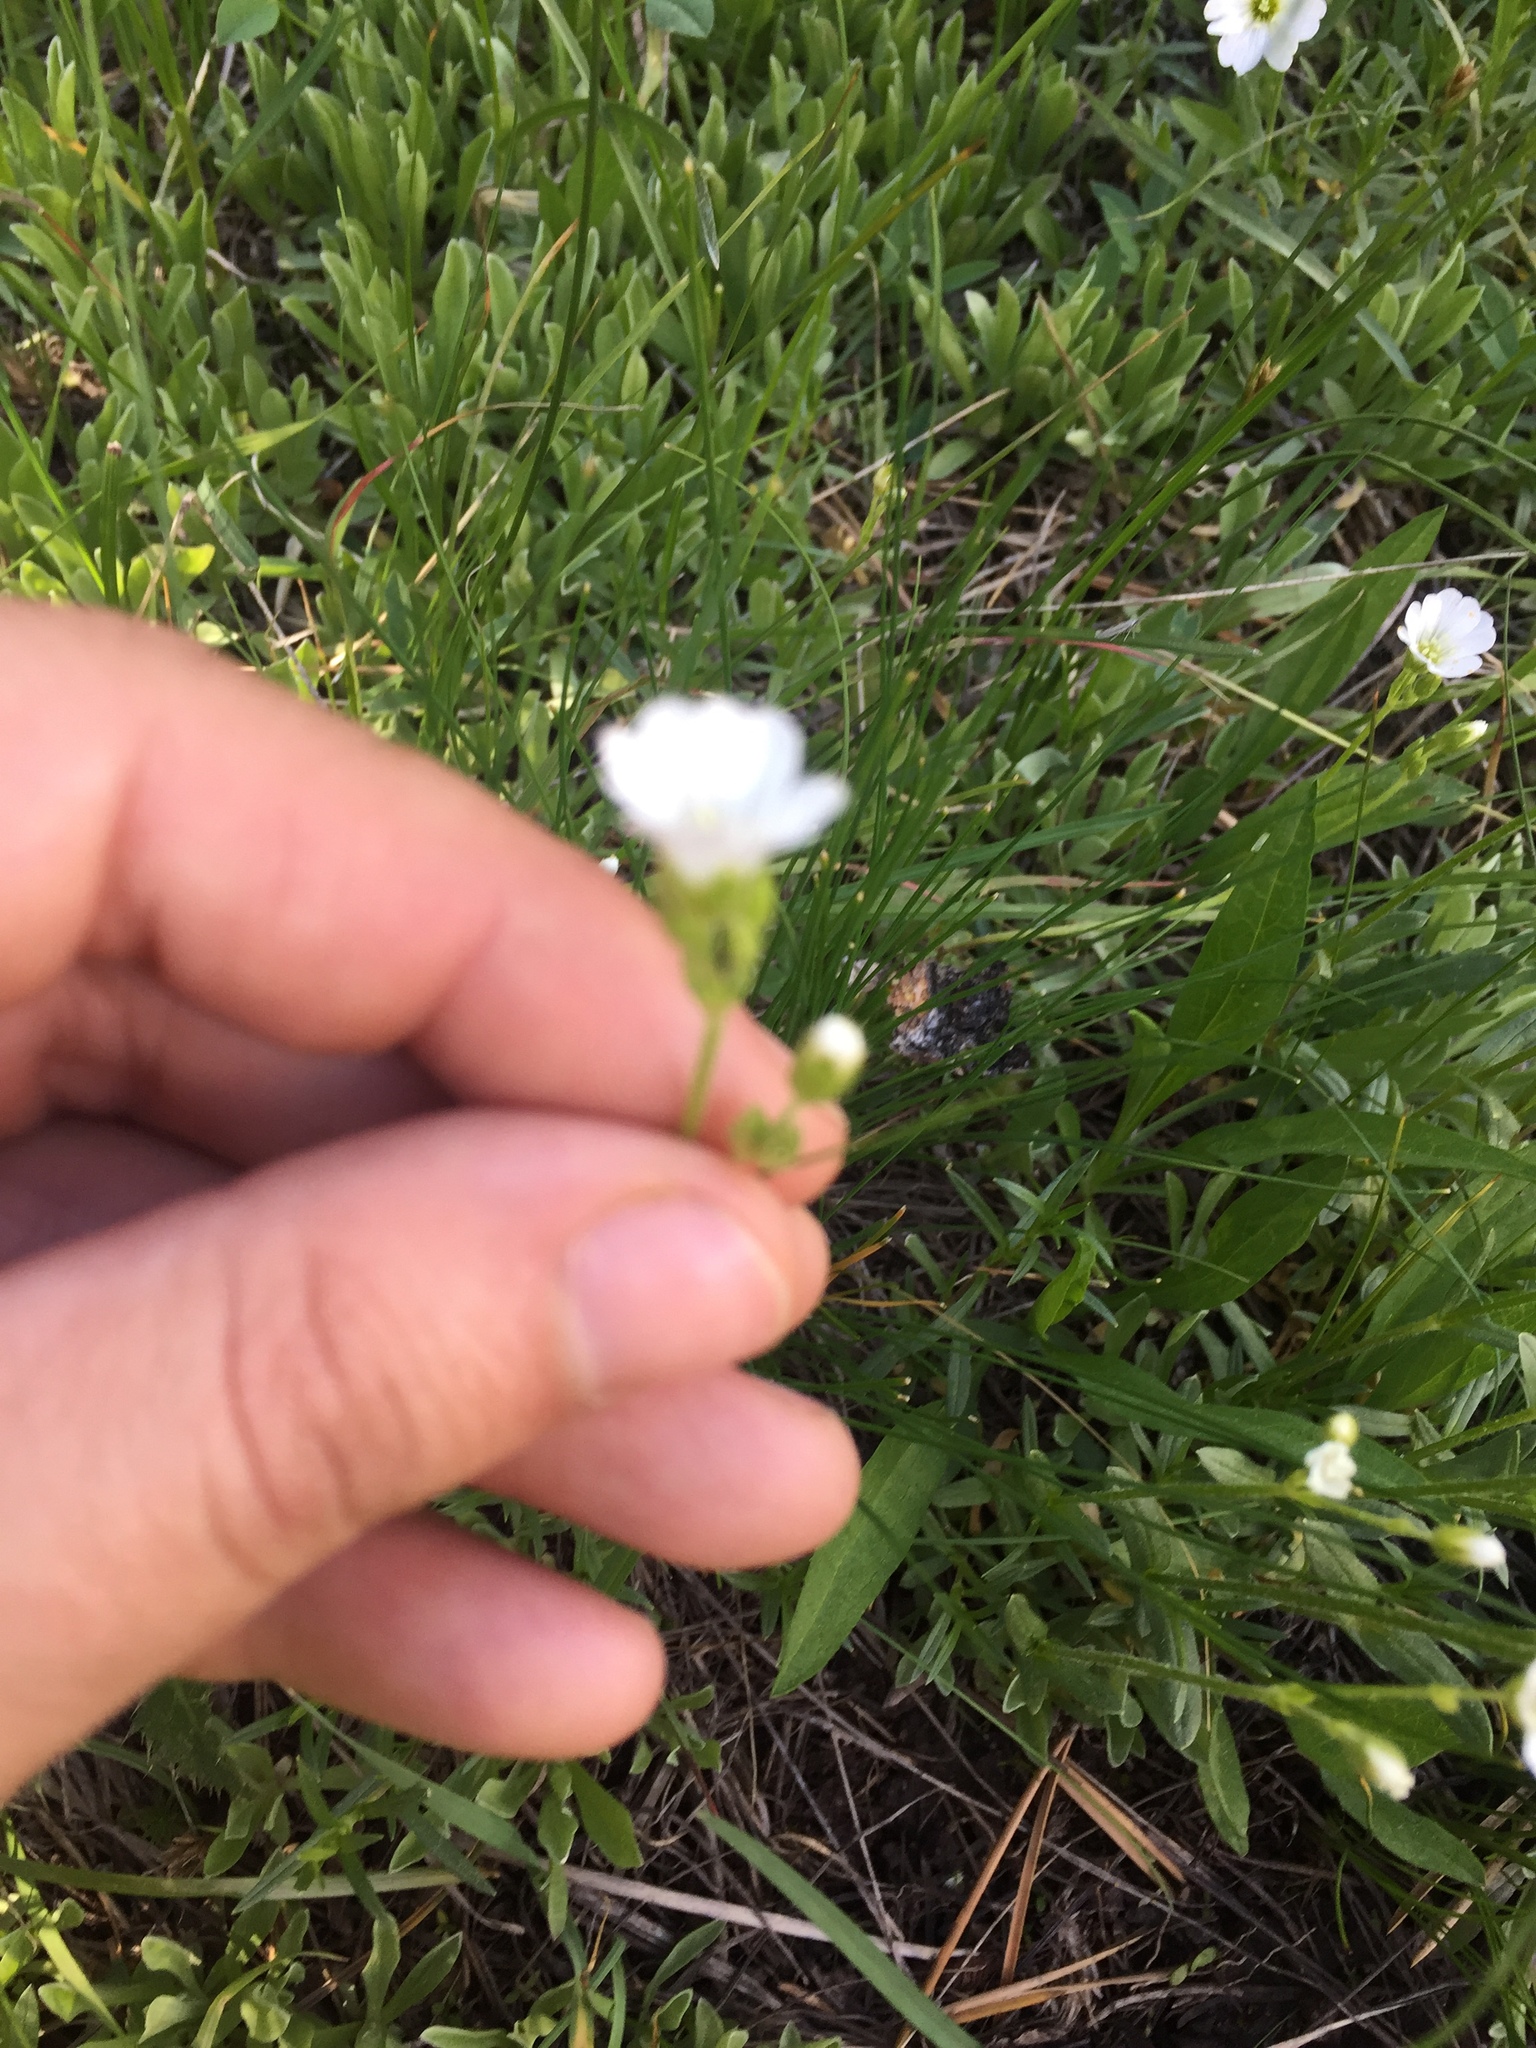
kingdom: Plantae
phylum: Tracheophyta
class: Magnoliopsida
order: Caryophyllales
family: Caryophyllaceae
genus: Cerastium
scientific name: Cerastium arvense
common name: Field mouse-ear
